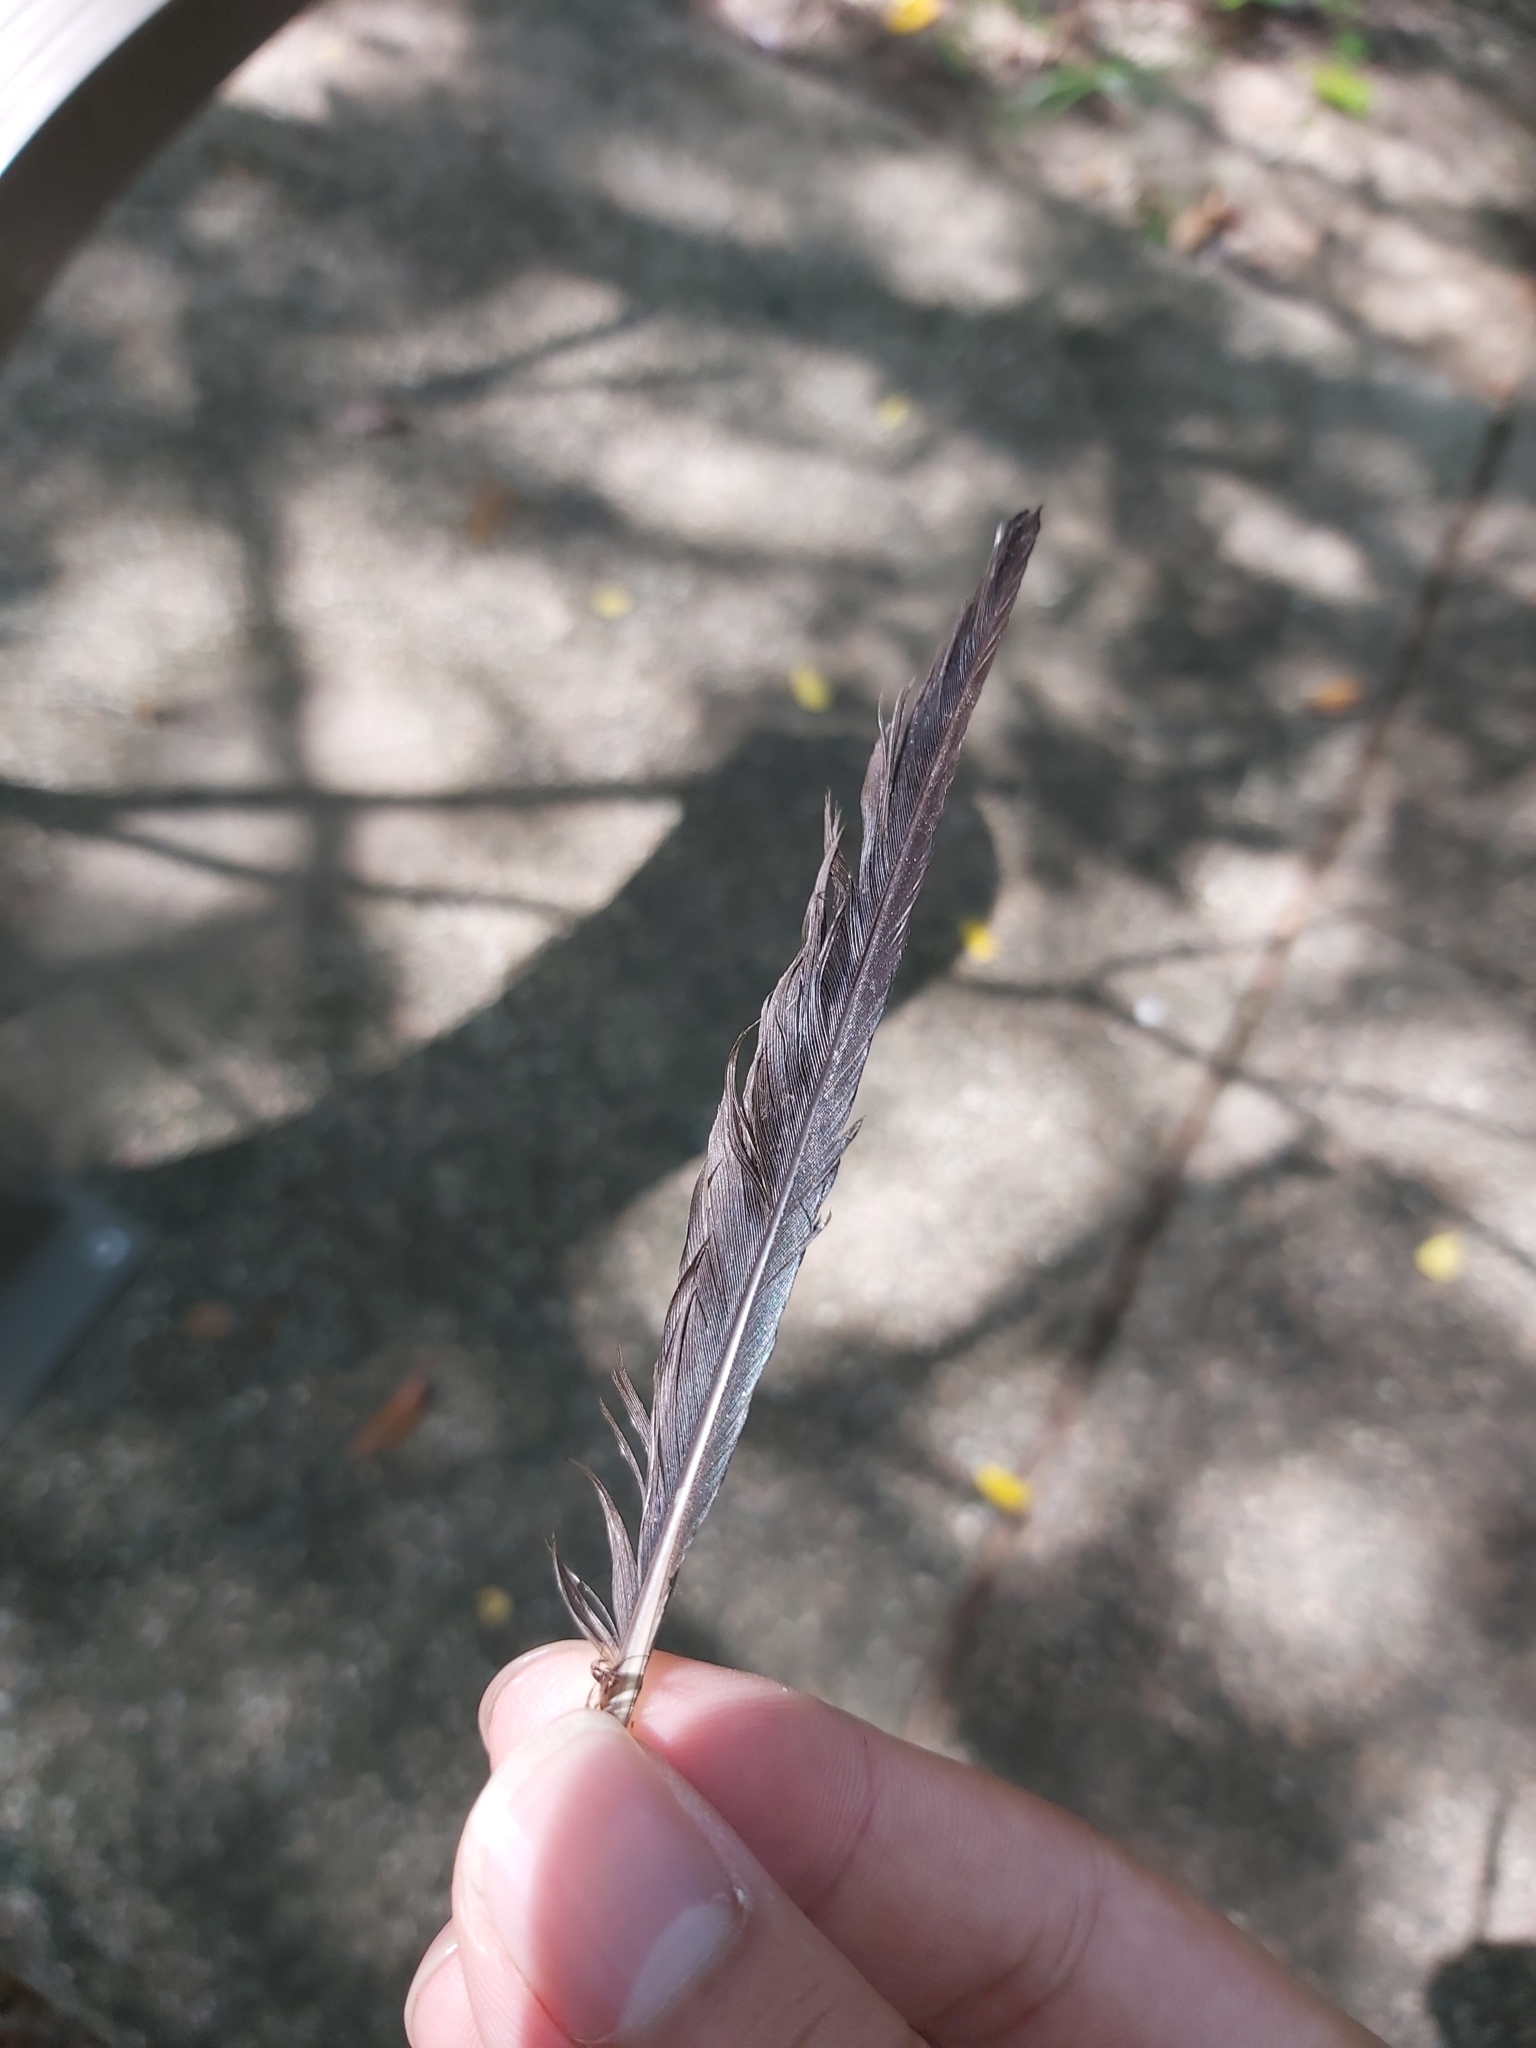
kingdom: Animalia
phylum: Chordata
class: Aves
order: Passeriformes
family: Sturnidae
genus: Aplonis
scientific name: Aplonis metallica
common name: Metallic starling
